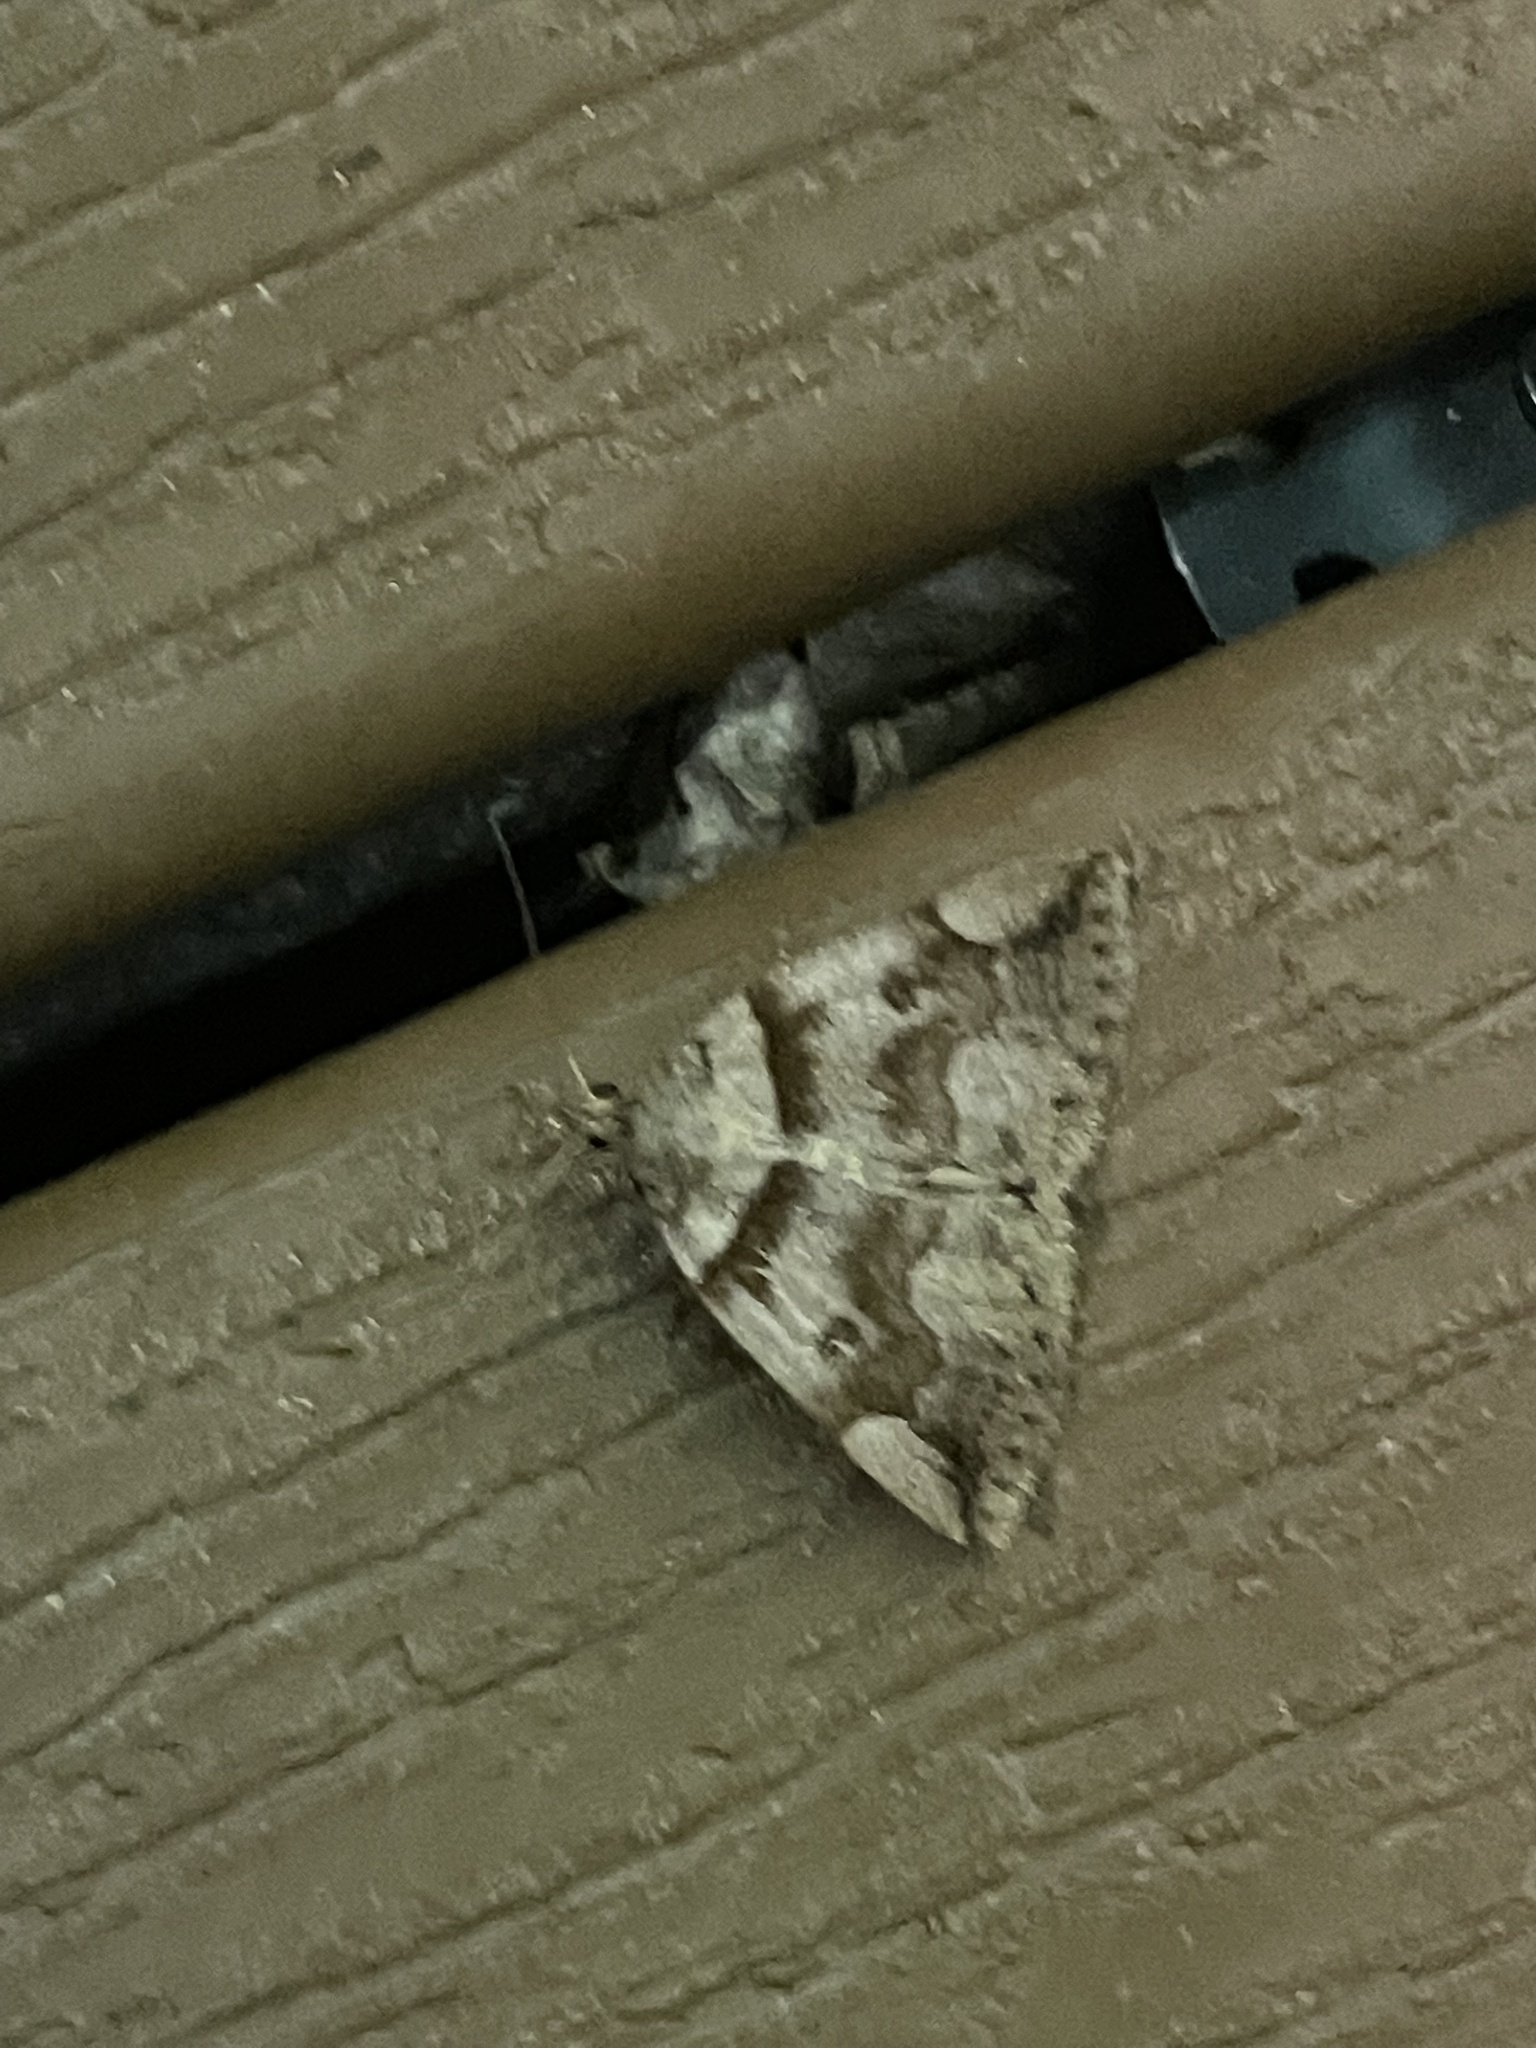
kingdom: Animalia
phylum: Arthropoda
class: Insecta
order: Lepidoptera
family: Erebidae
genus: Zanclognatha
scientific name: Zanclognatha laevigata
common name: Variable fan-foot
